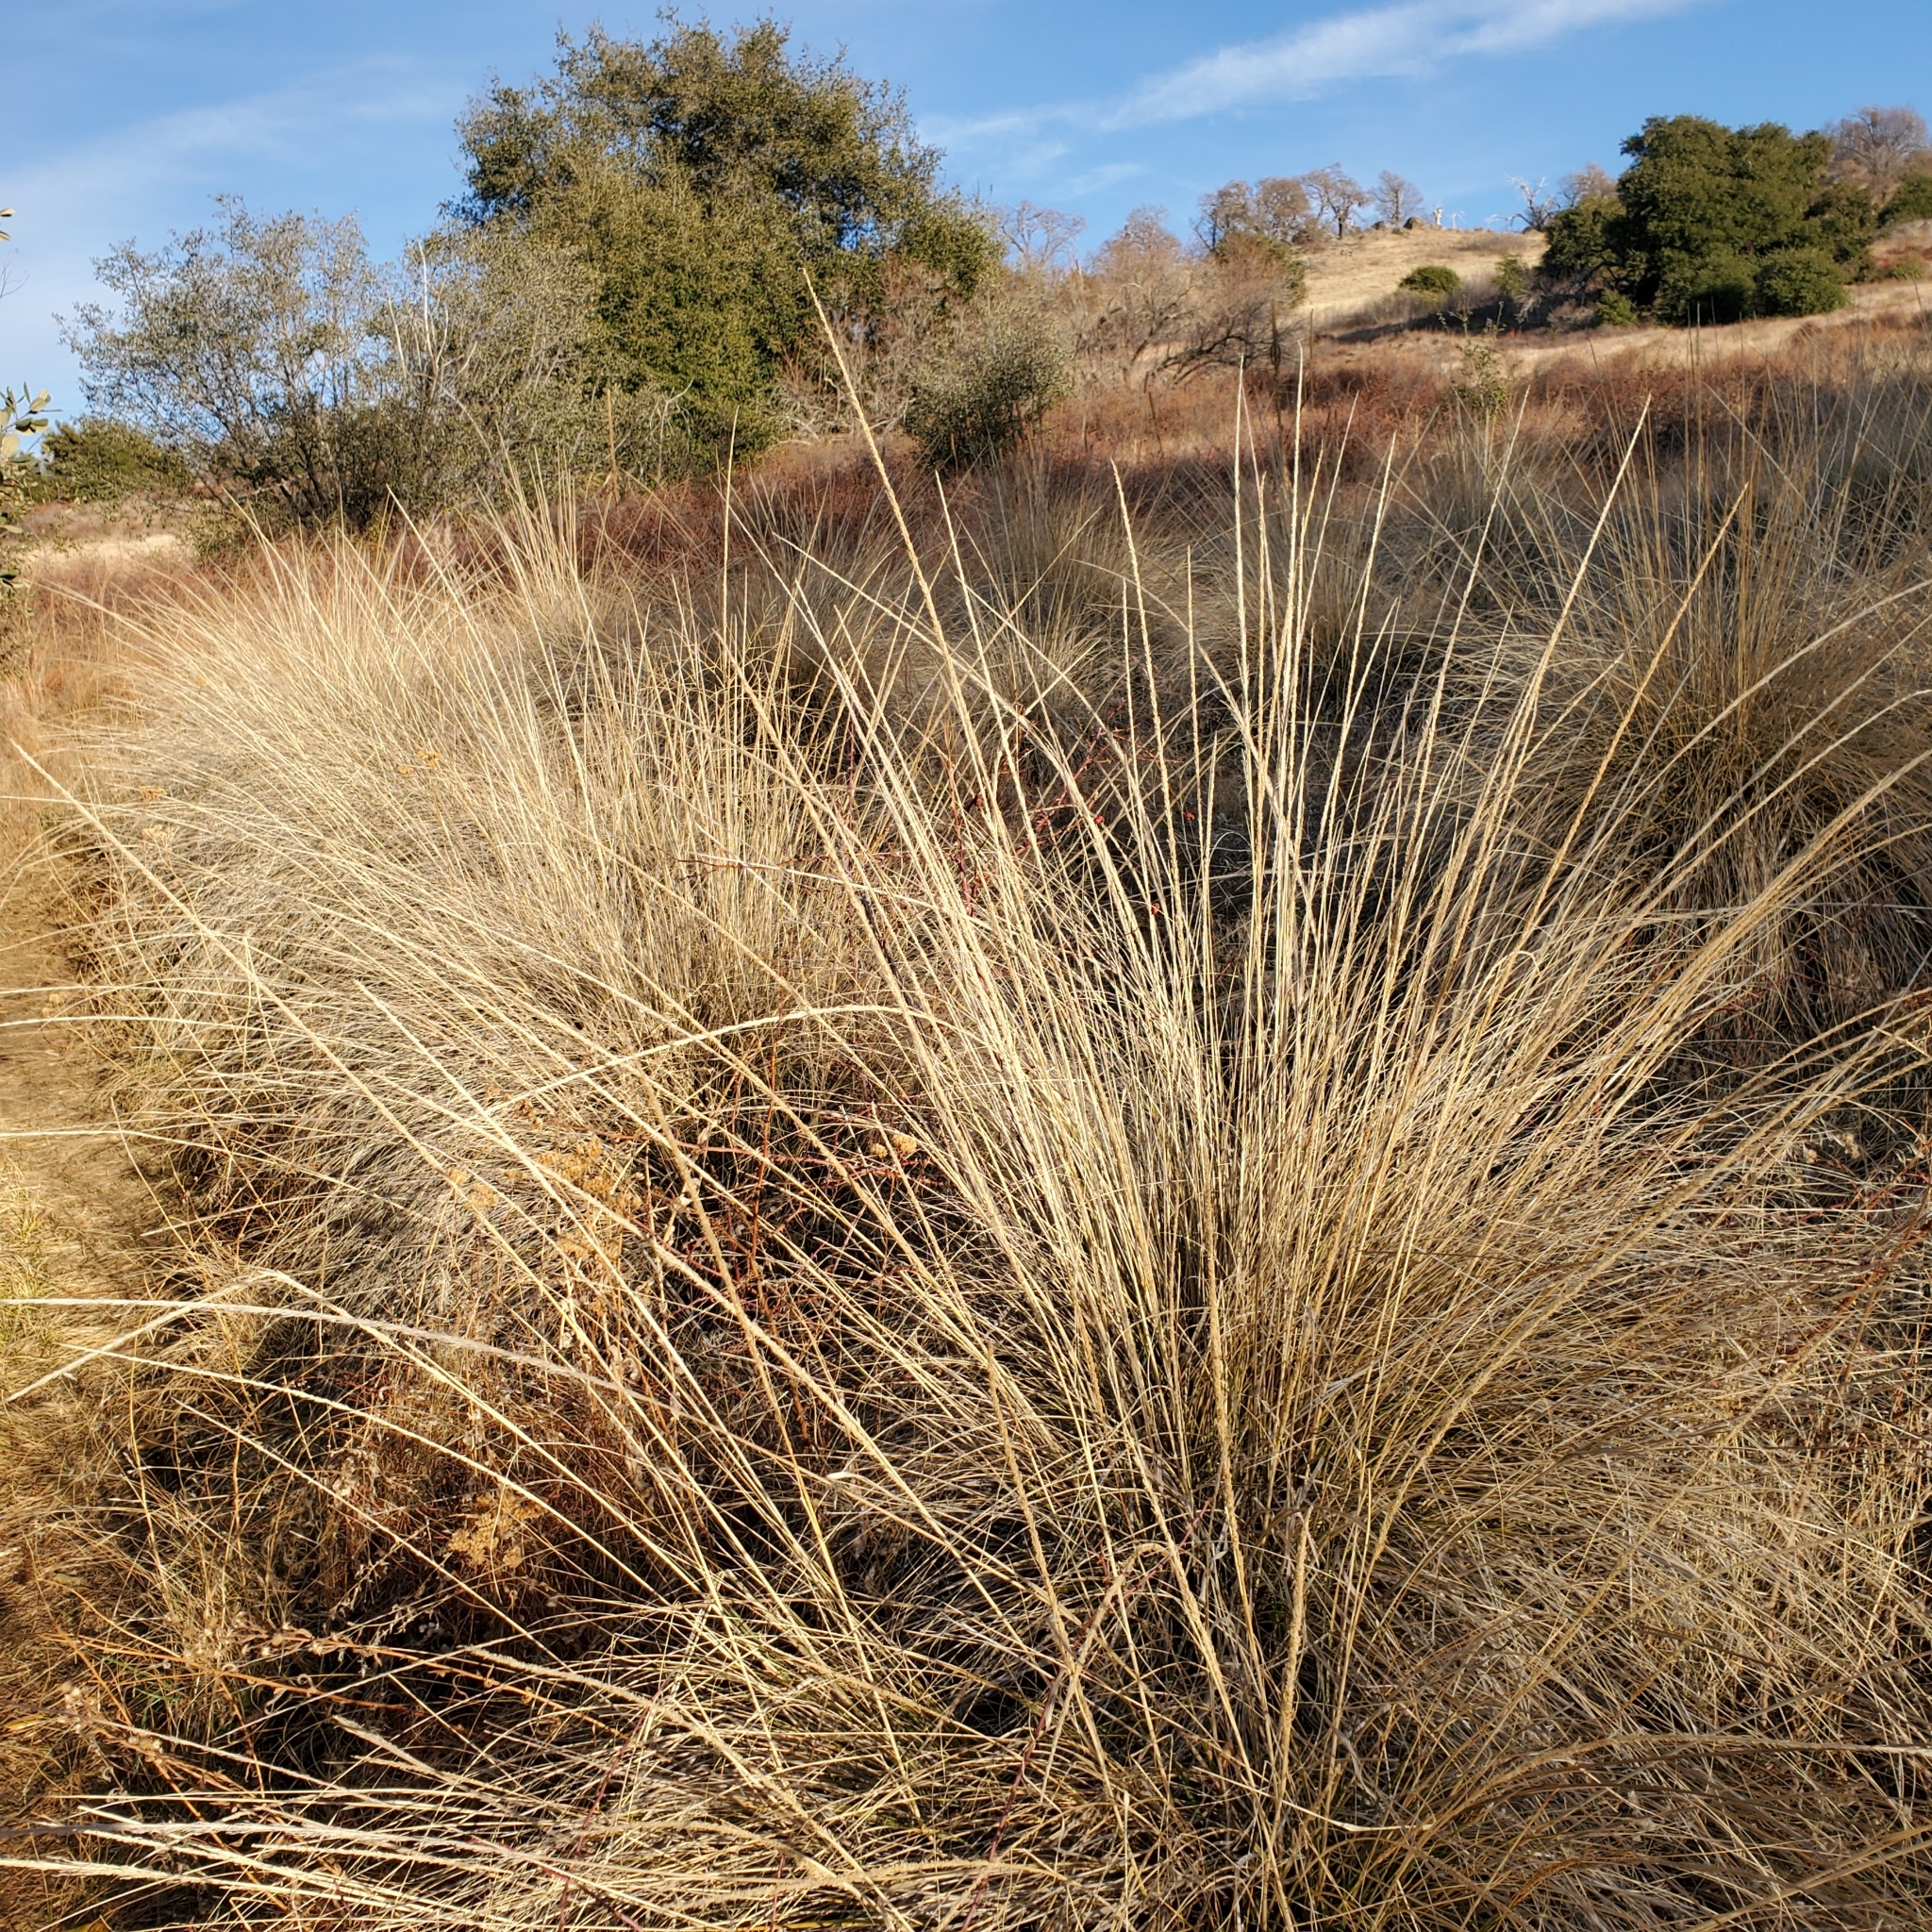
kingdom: Plantae
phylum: Tracheophyta
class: Liliopsida
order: Poales
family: Poaceae
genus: Muhlenbergia
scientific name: Muhlenbergia rigens
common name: Deer grass
